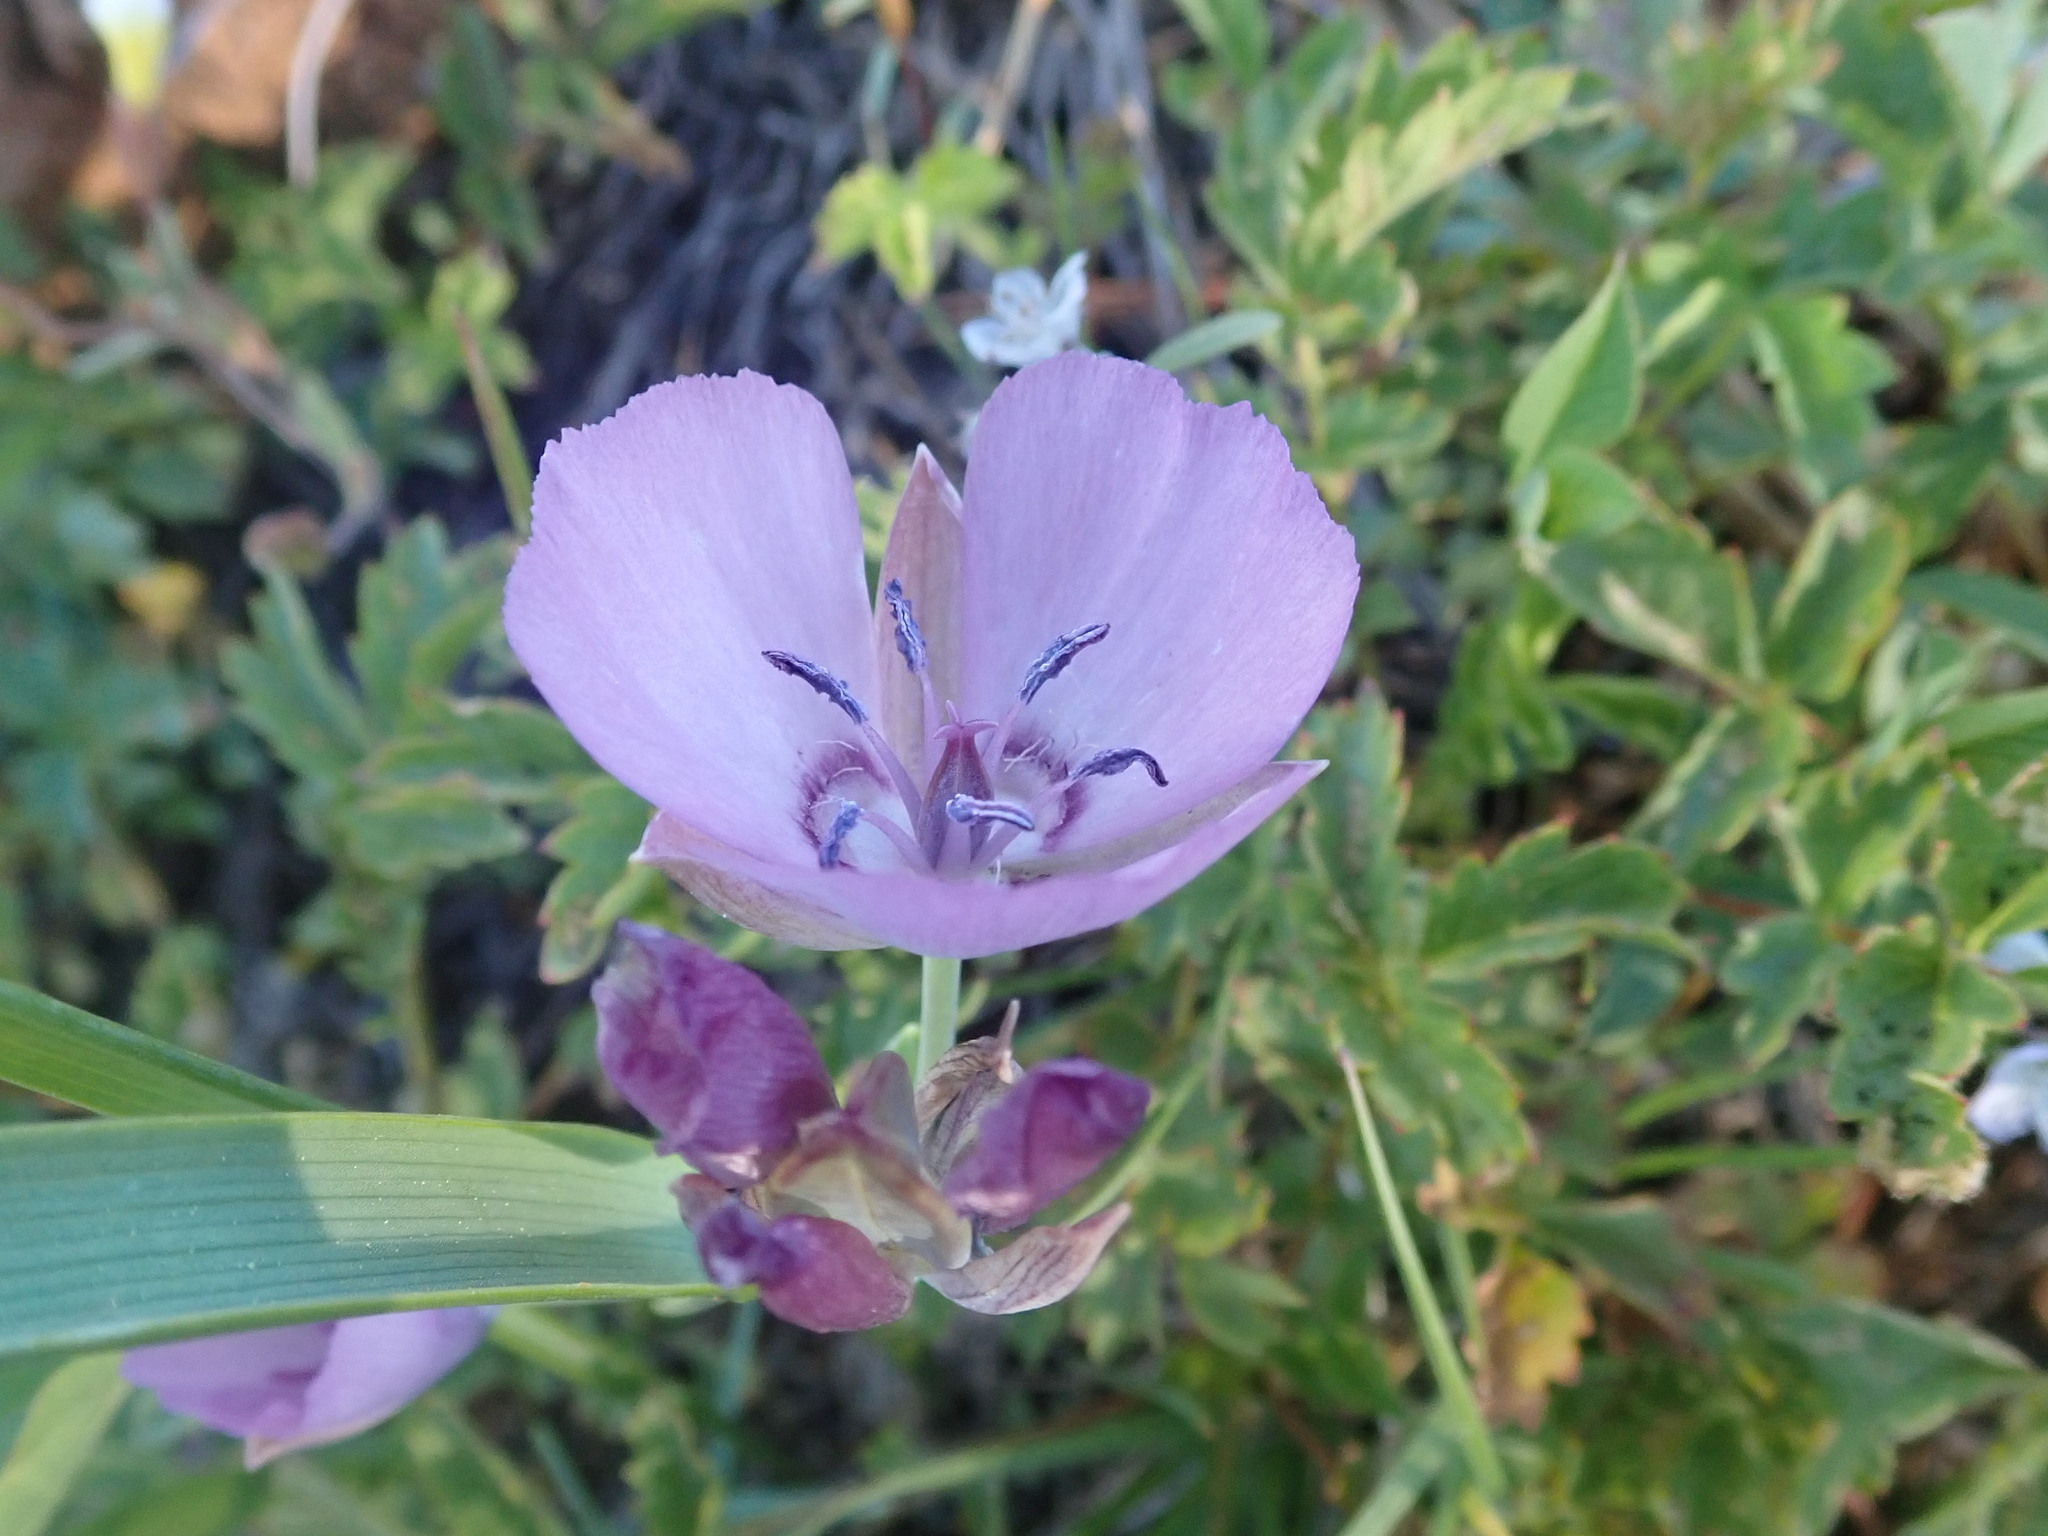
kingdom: Plantae
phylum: Tracheophyta
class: Liliopsida
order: Liliales
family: Liliaceae
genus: Calochortus
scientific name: Calochortus nudus
